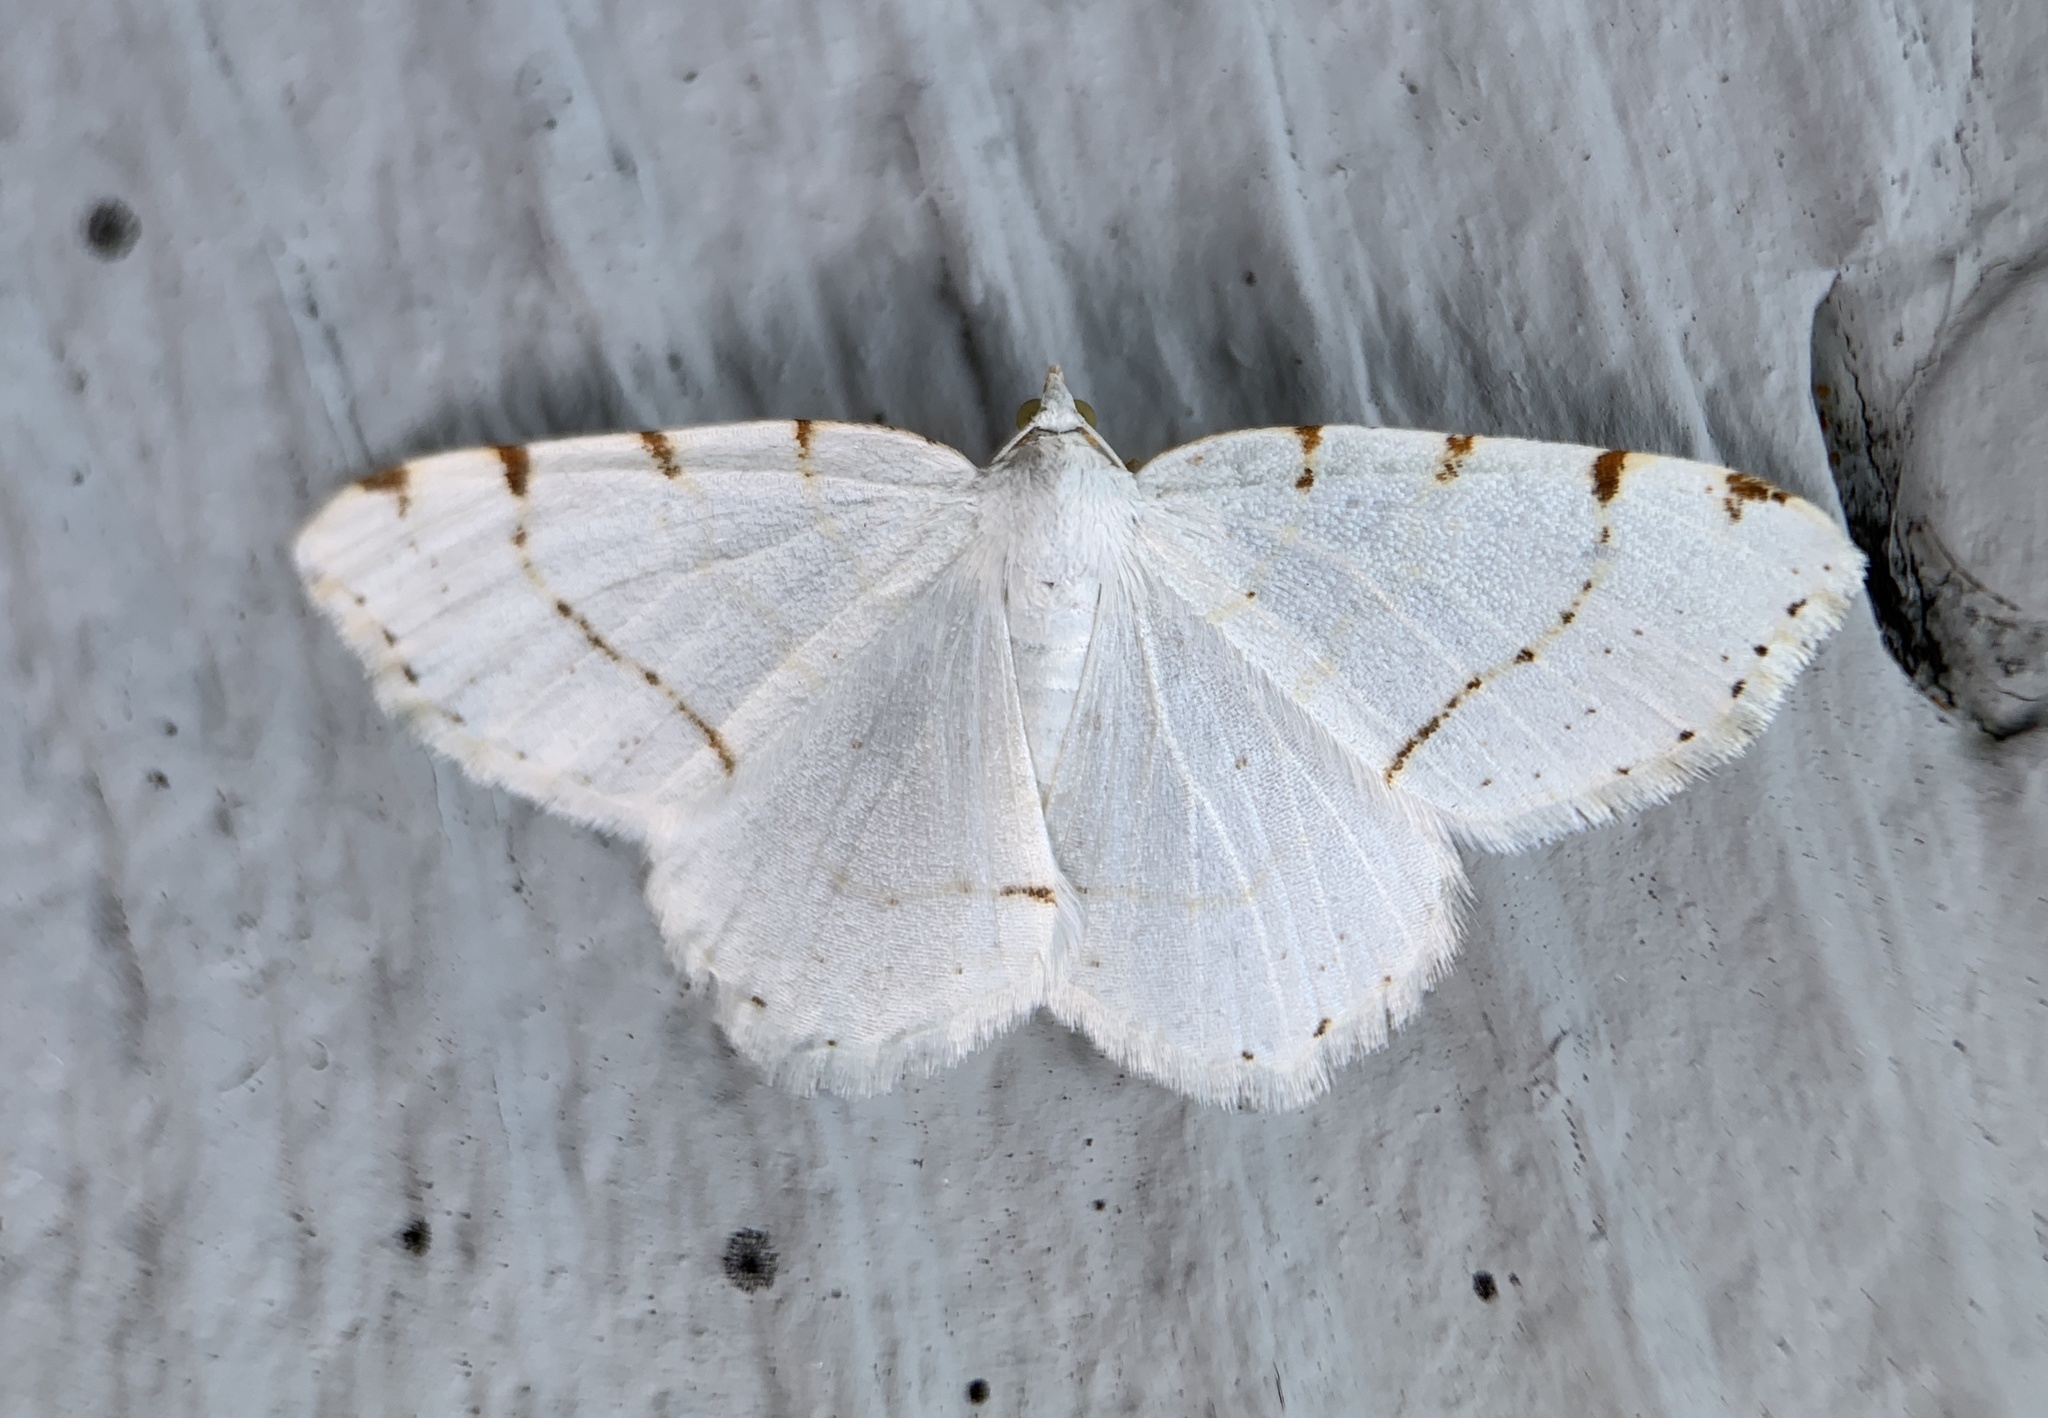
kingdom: Animalia
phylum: Arthropoda
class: Insecta
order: Lepidoptera
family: Geometridae
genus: Macaria
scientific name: Macaria pustularia
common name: Lesser maple spanworm moth
